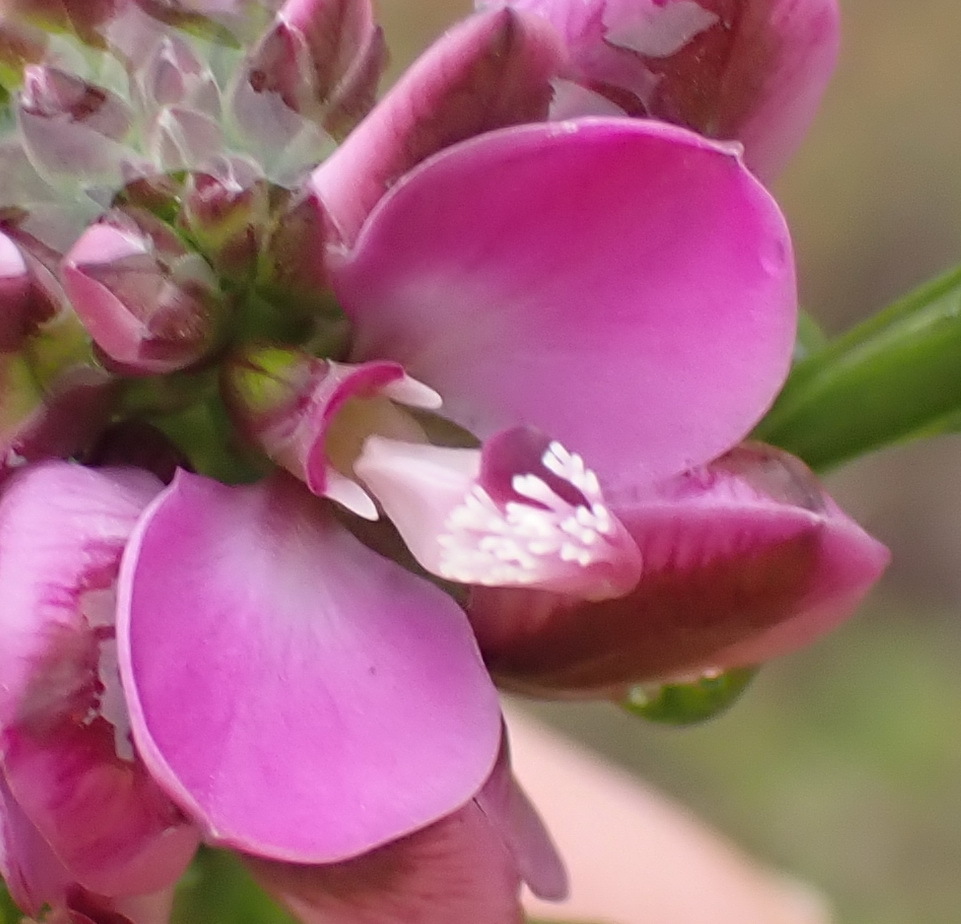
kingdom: Plantae
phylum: Tracheophyta
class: Magnoliopsida
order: Fabales
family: Polygalaceae
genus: Polygala
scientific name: Polygala umbellata
